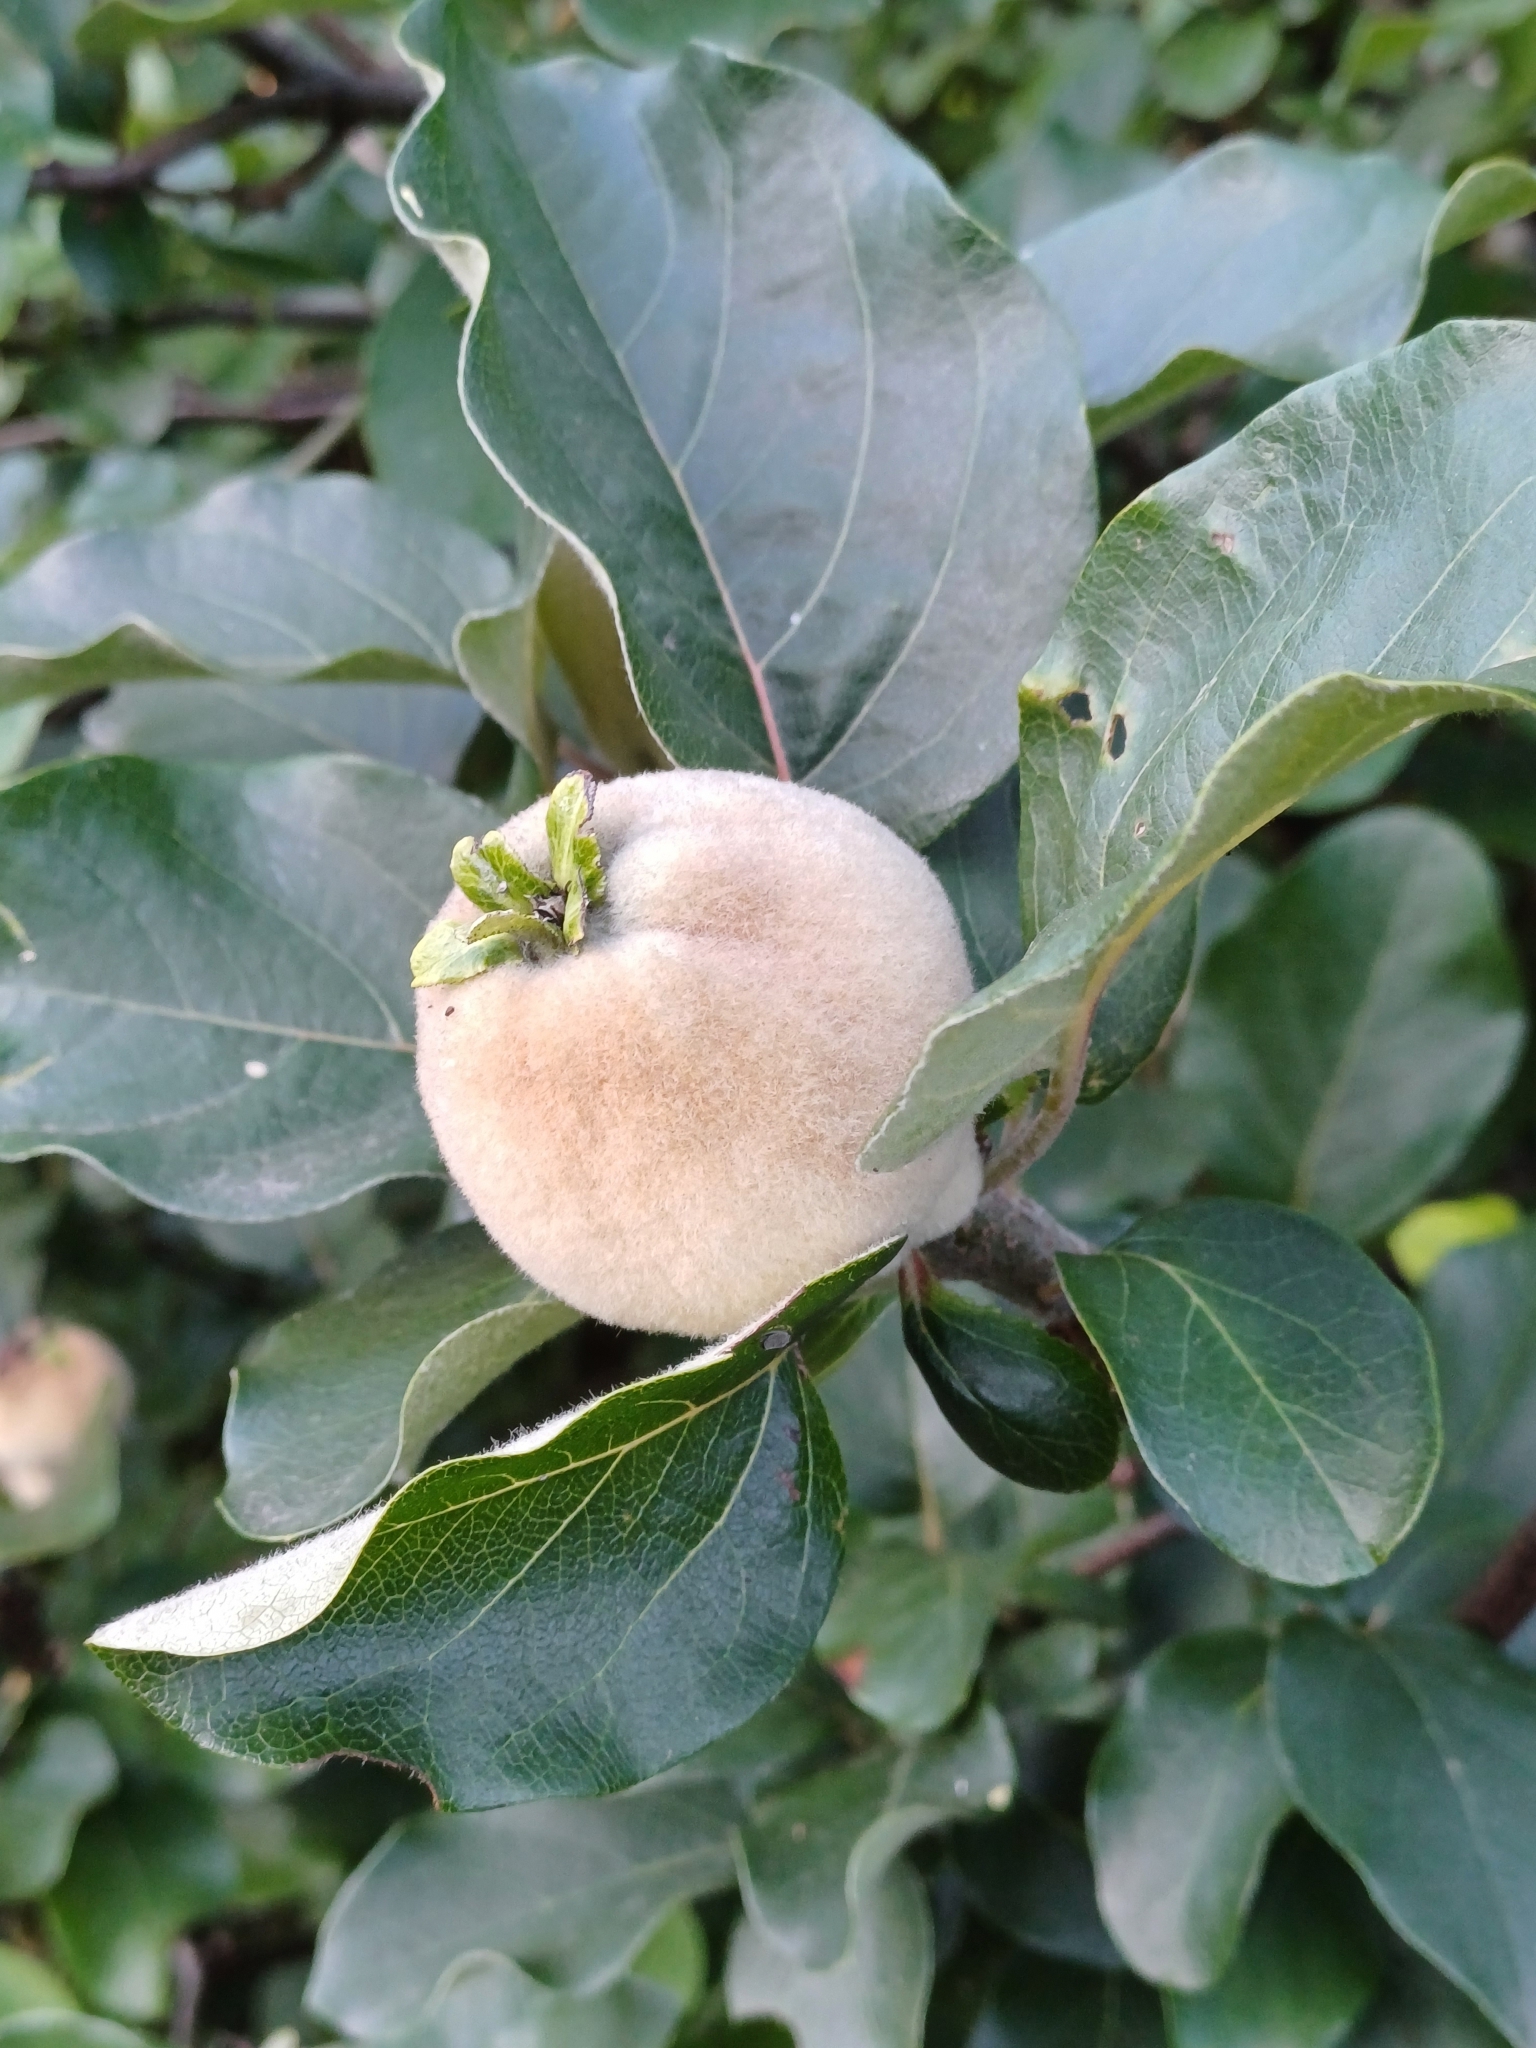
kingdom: Plantae
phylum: Tracheophyta
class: Magnoliopsida
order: Rosales
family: Rosaceae
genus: Cydonia
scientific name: Cydonia oblonga
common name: Quince
